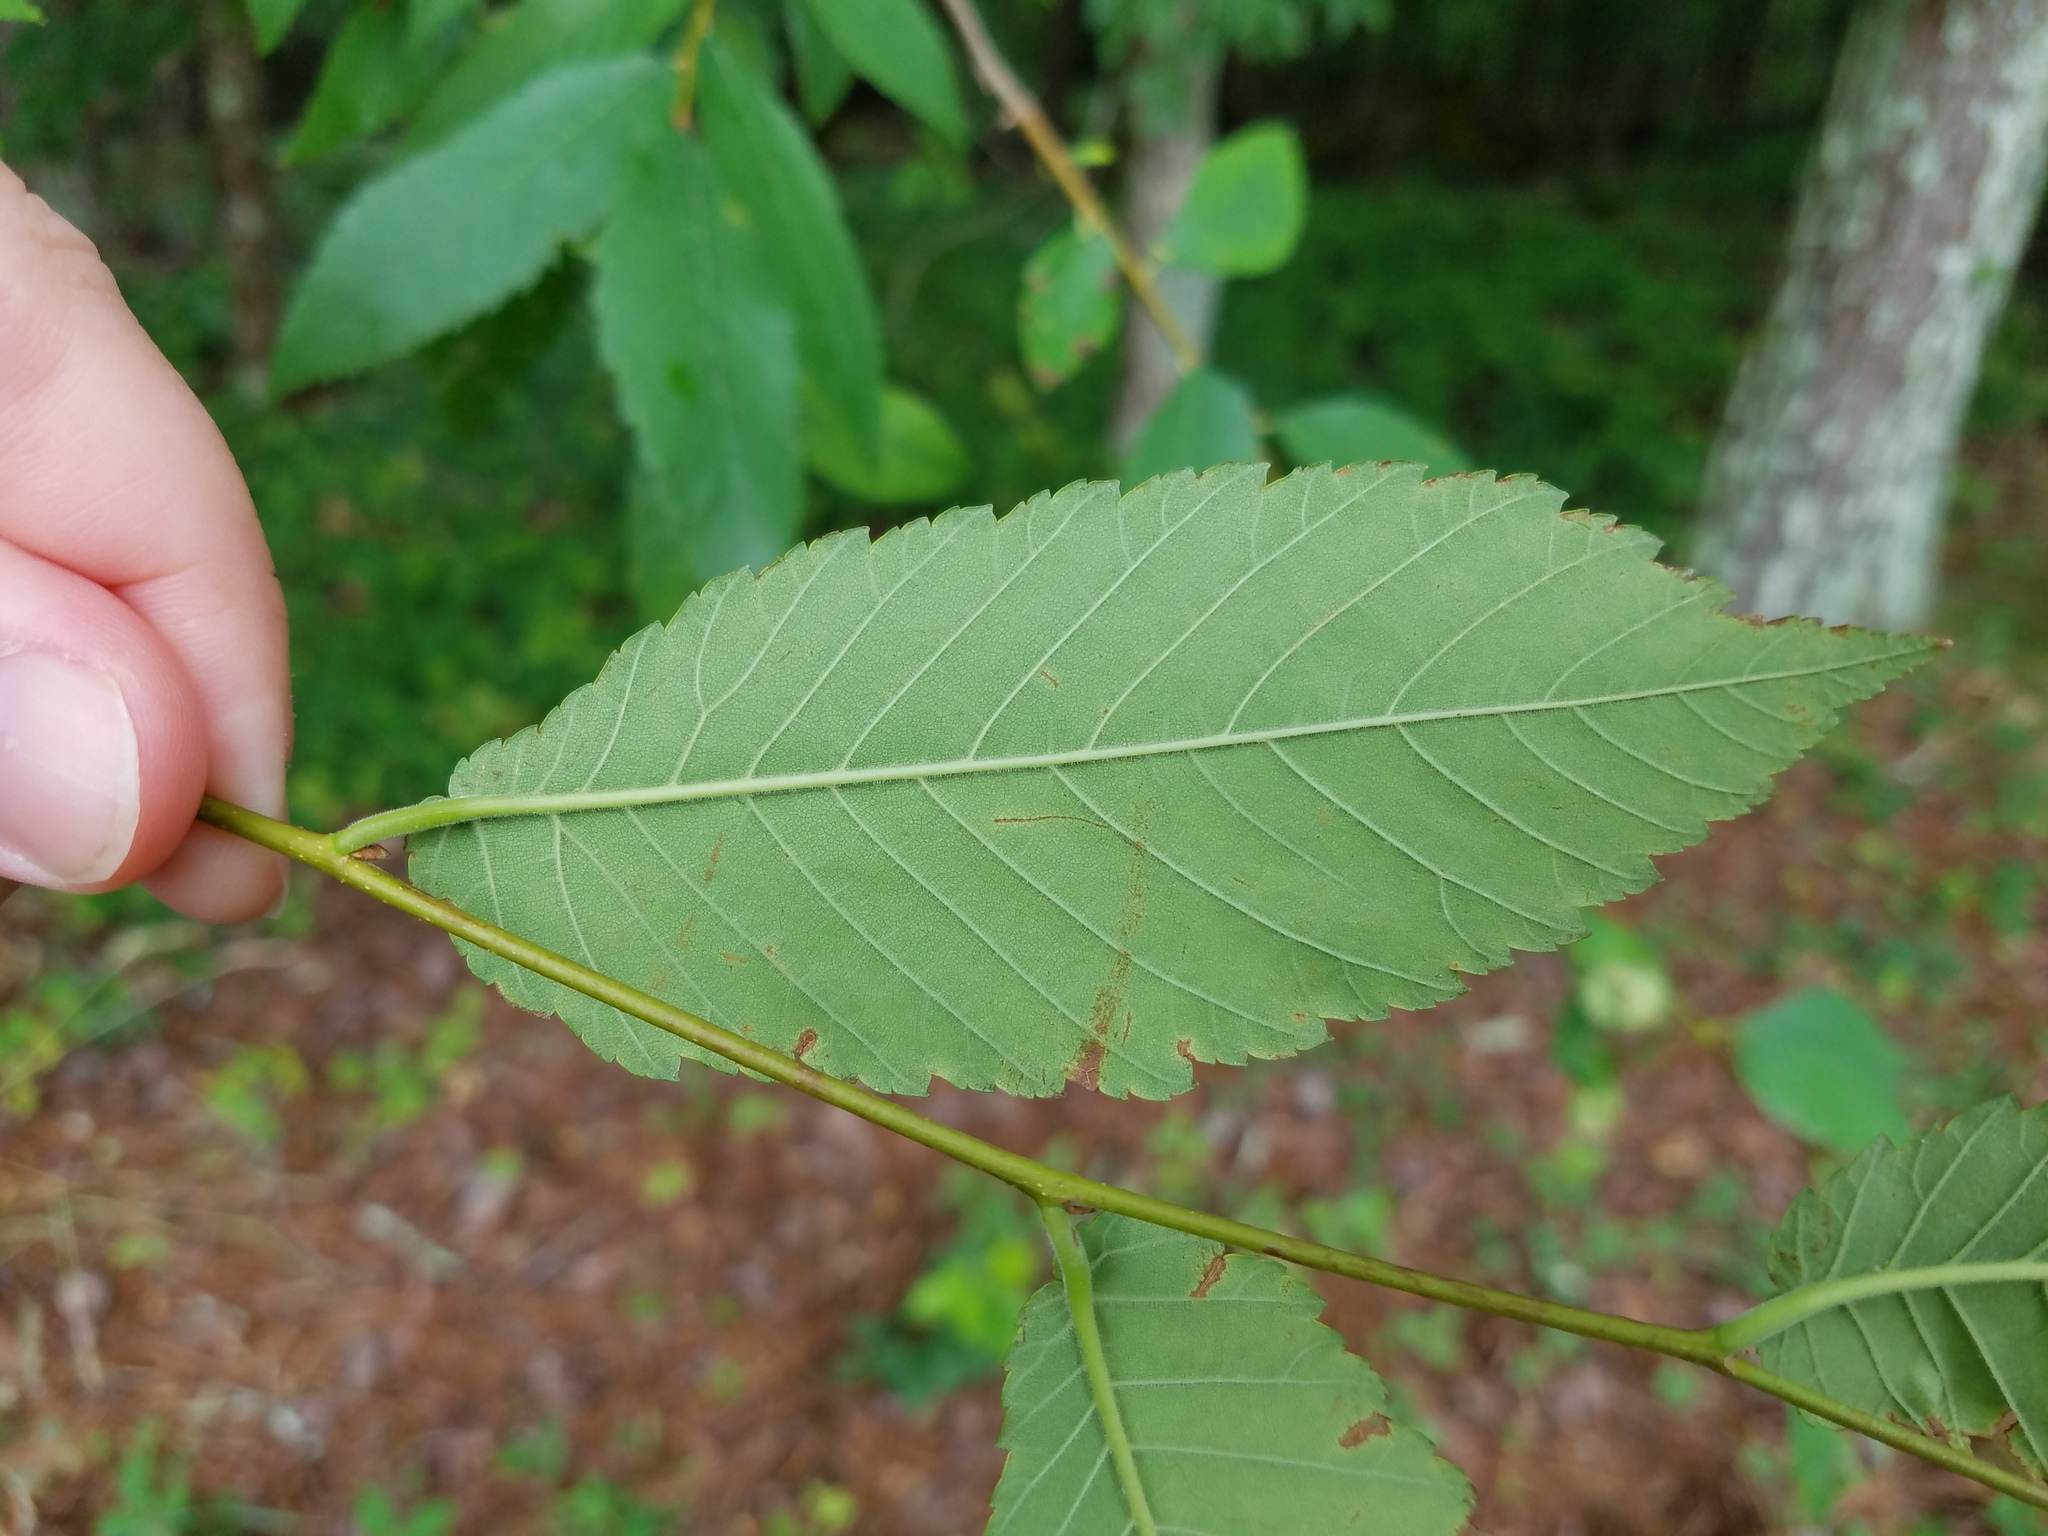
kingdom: Plantae
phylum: Tracheophyta
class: Magnoliopsida
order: Rosales
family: Ulmaceae
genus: Ulmus
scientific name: Ulmus alata
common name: Winged elm
